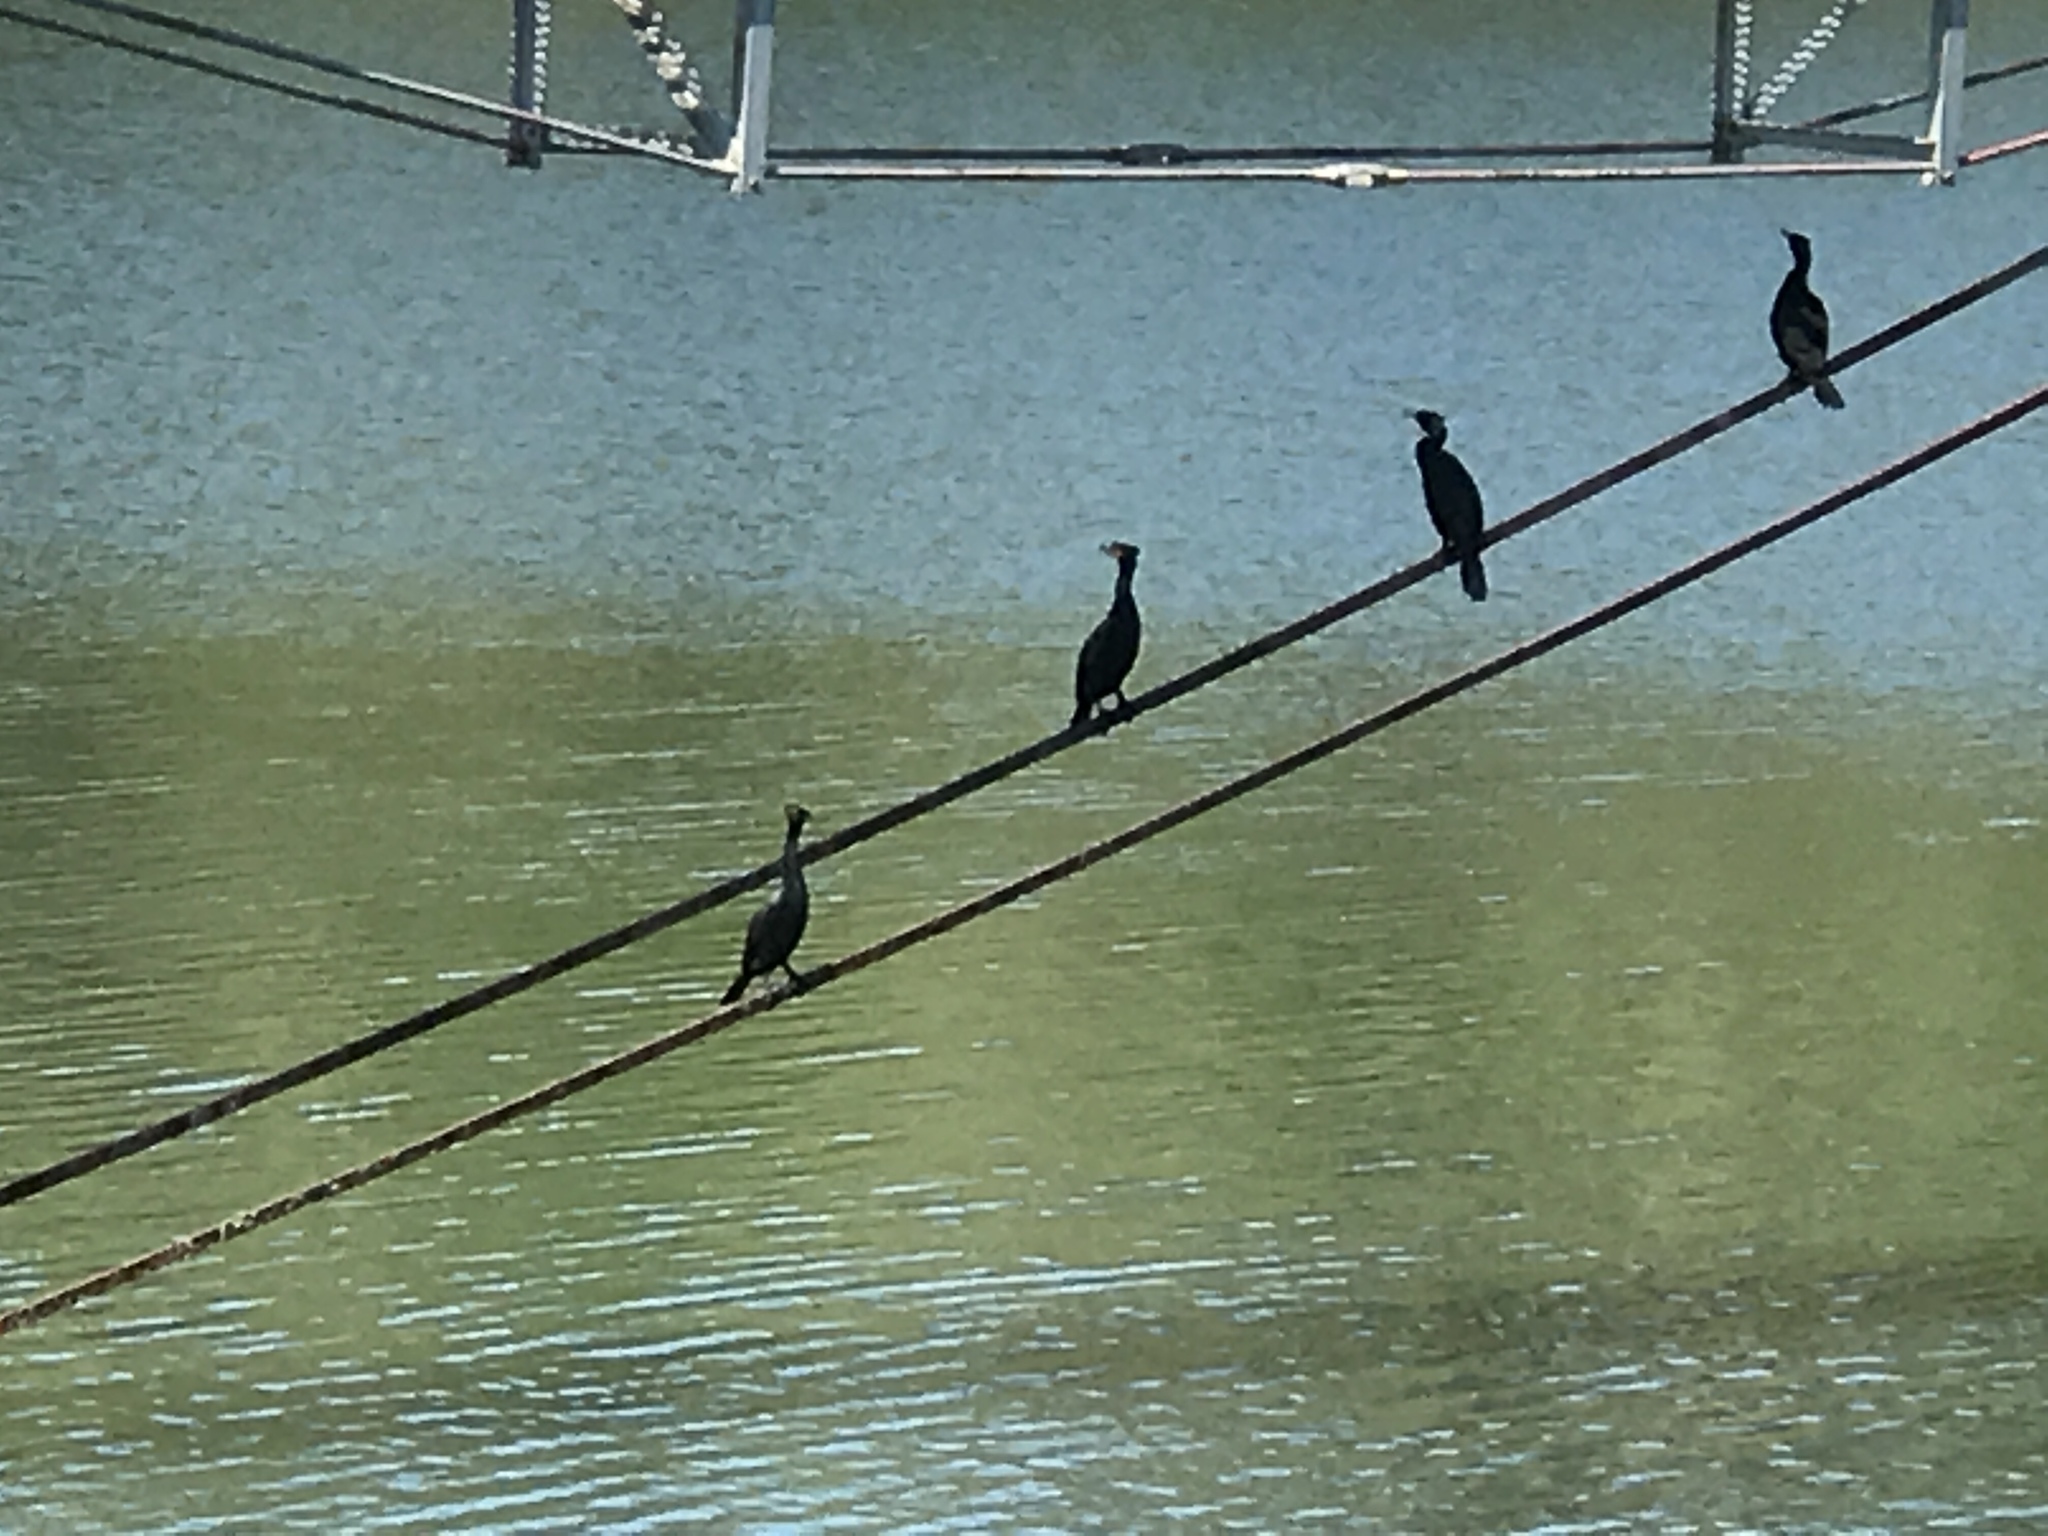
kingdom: Animalia
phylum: Chordata
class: Aves
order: Suliformes
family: Phalacrocoracidae
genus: Phalacrocorax
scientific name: Phalacrocorax auritus
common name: Double-crested cormorant
